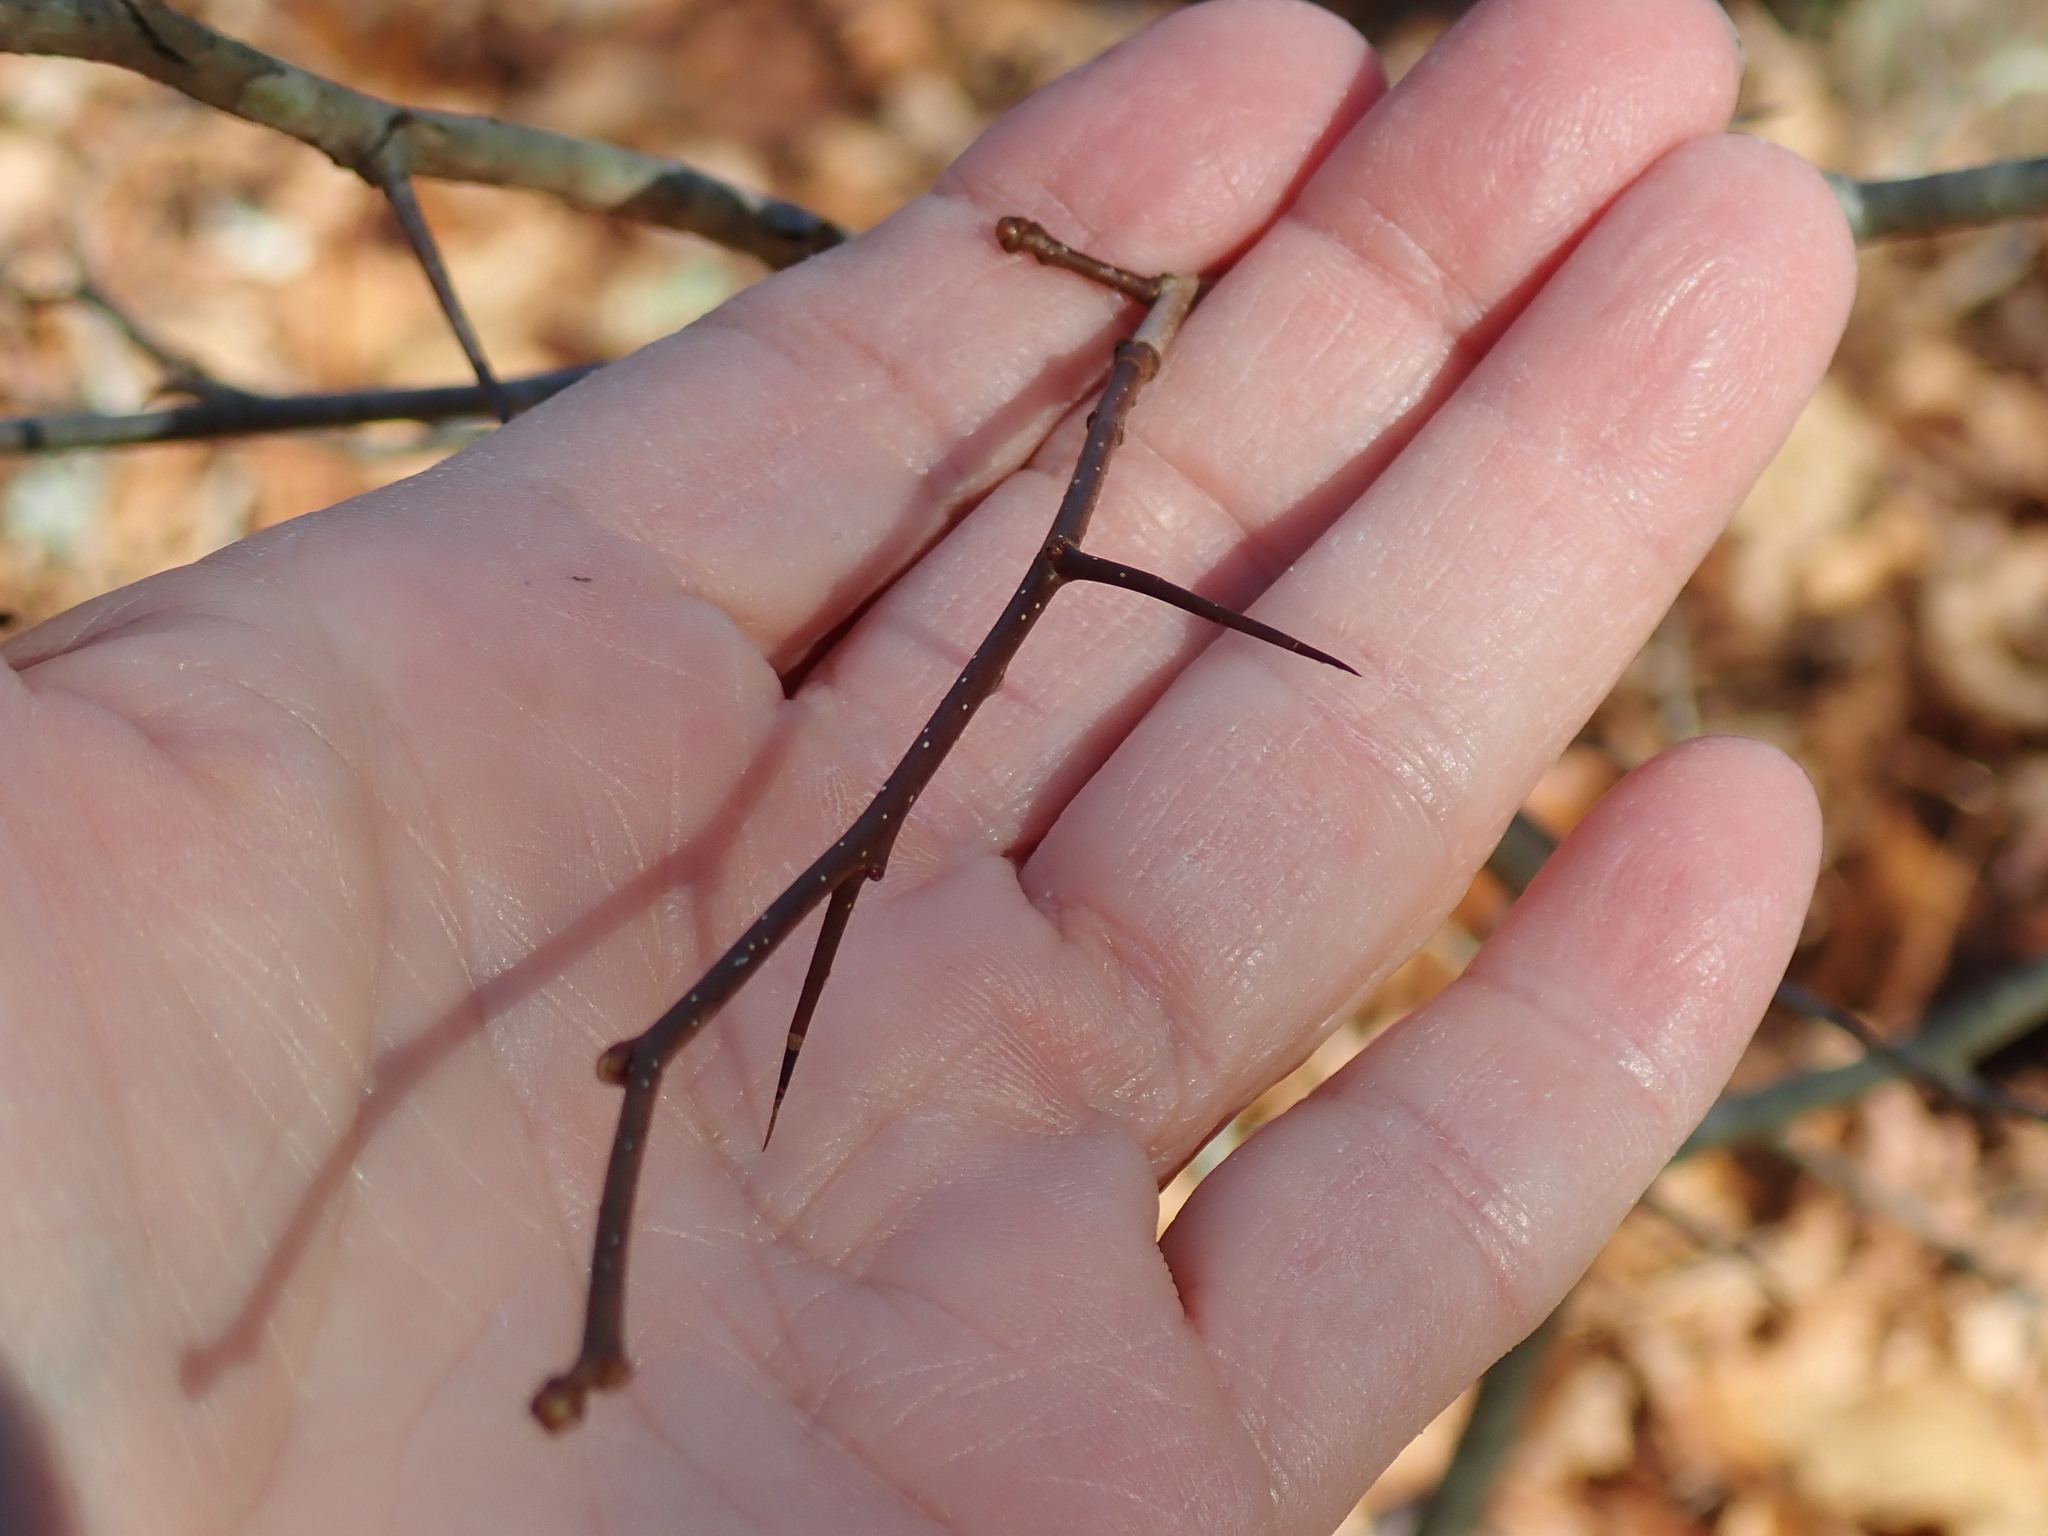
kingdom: Plantae
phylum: Tracheophyta
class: Magnoliopsida
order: Rosales
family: Rosaceae
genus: Crataegus
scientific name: Crataegus
